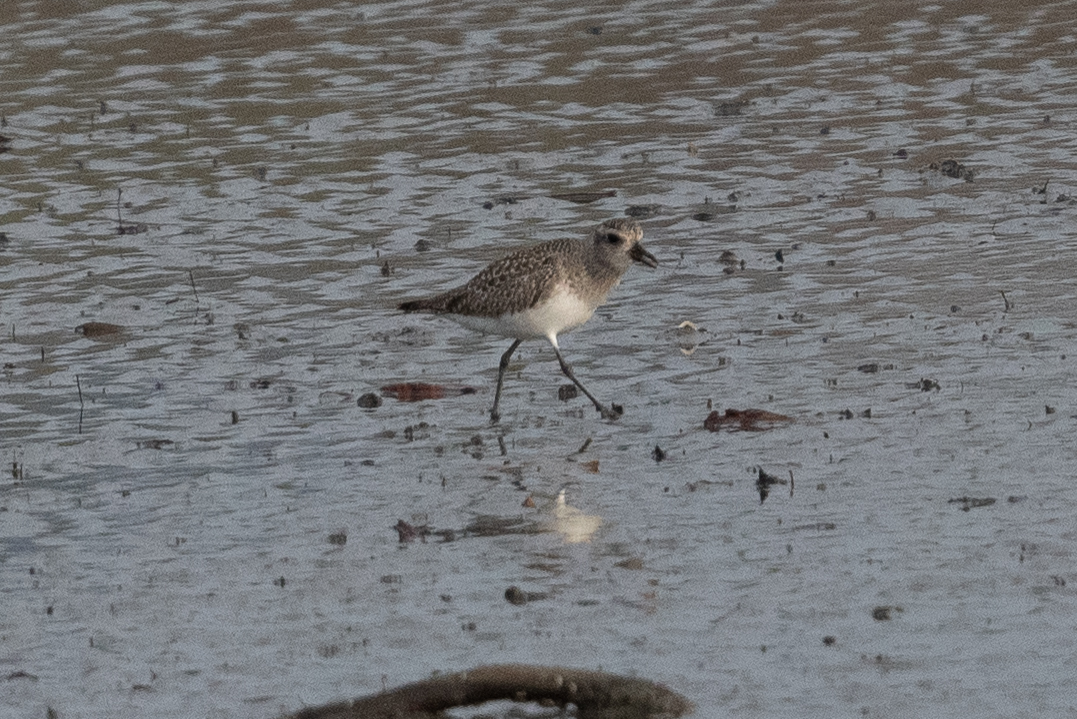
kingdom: Animalia
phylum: Chordata
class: Aves
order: Charadriiformes
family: Charadriidae
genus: Pluvialis
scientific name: Pluvialis squatarola
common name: Grey plover
